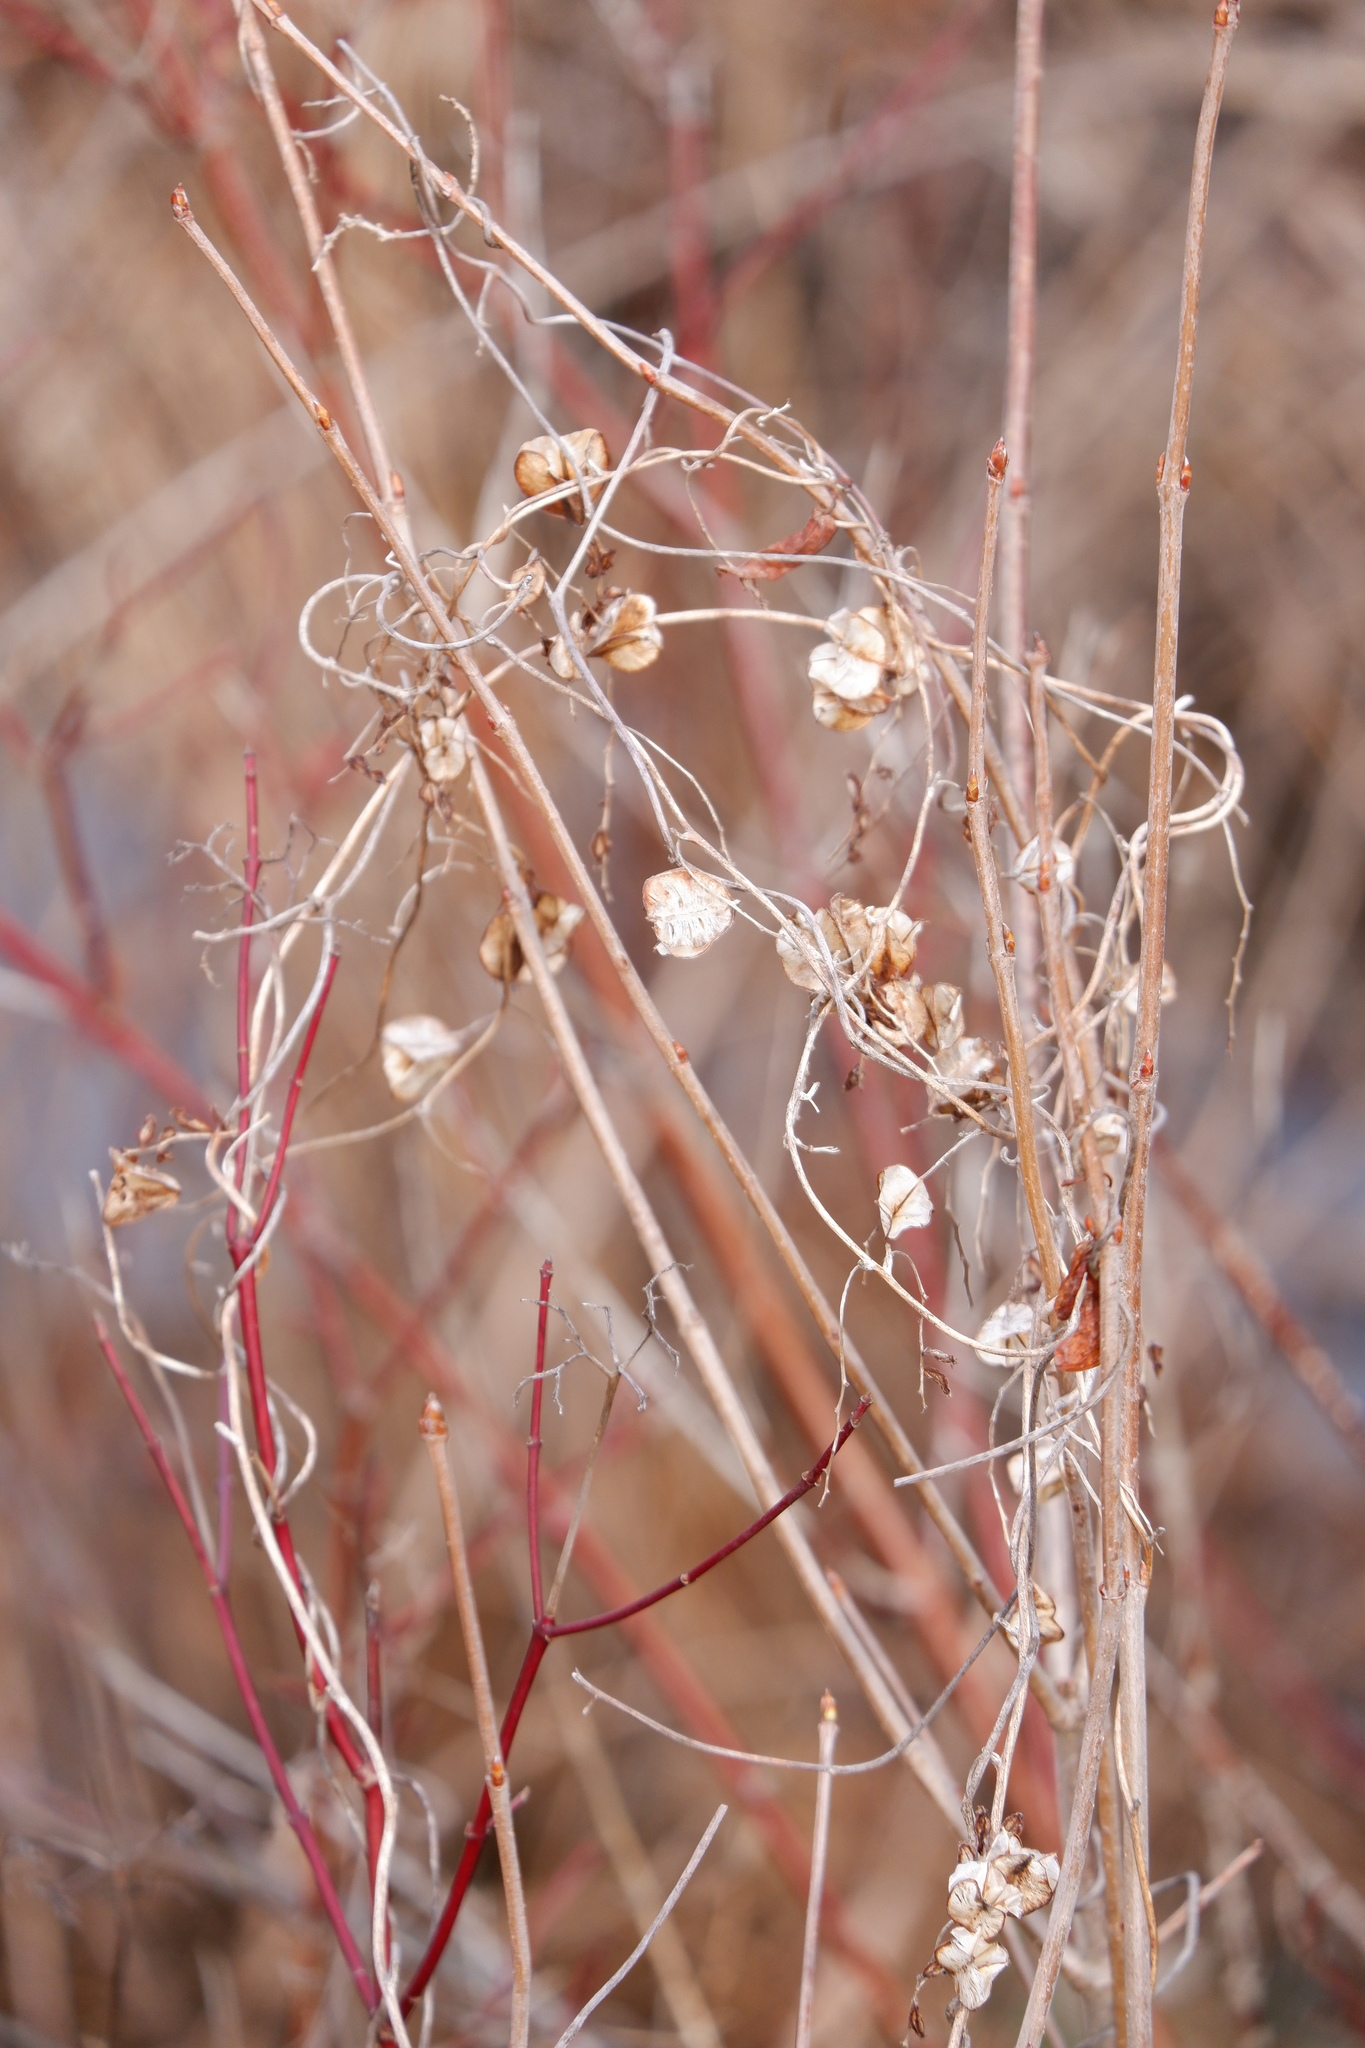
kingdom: Plantae
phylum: Tracheophyta
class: Liliopsida
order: Dioscoreales
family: Dioscoreaceae
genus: Dioscorea
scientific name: Dioscorea villosa
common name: Wild yam
